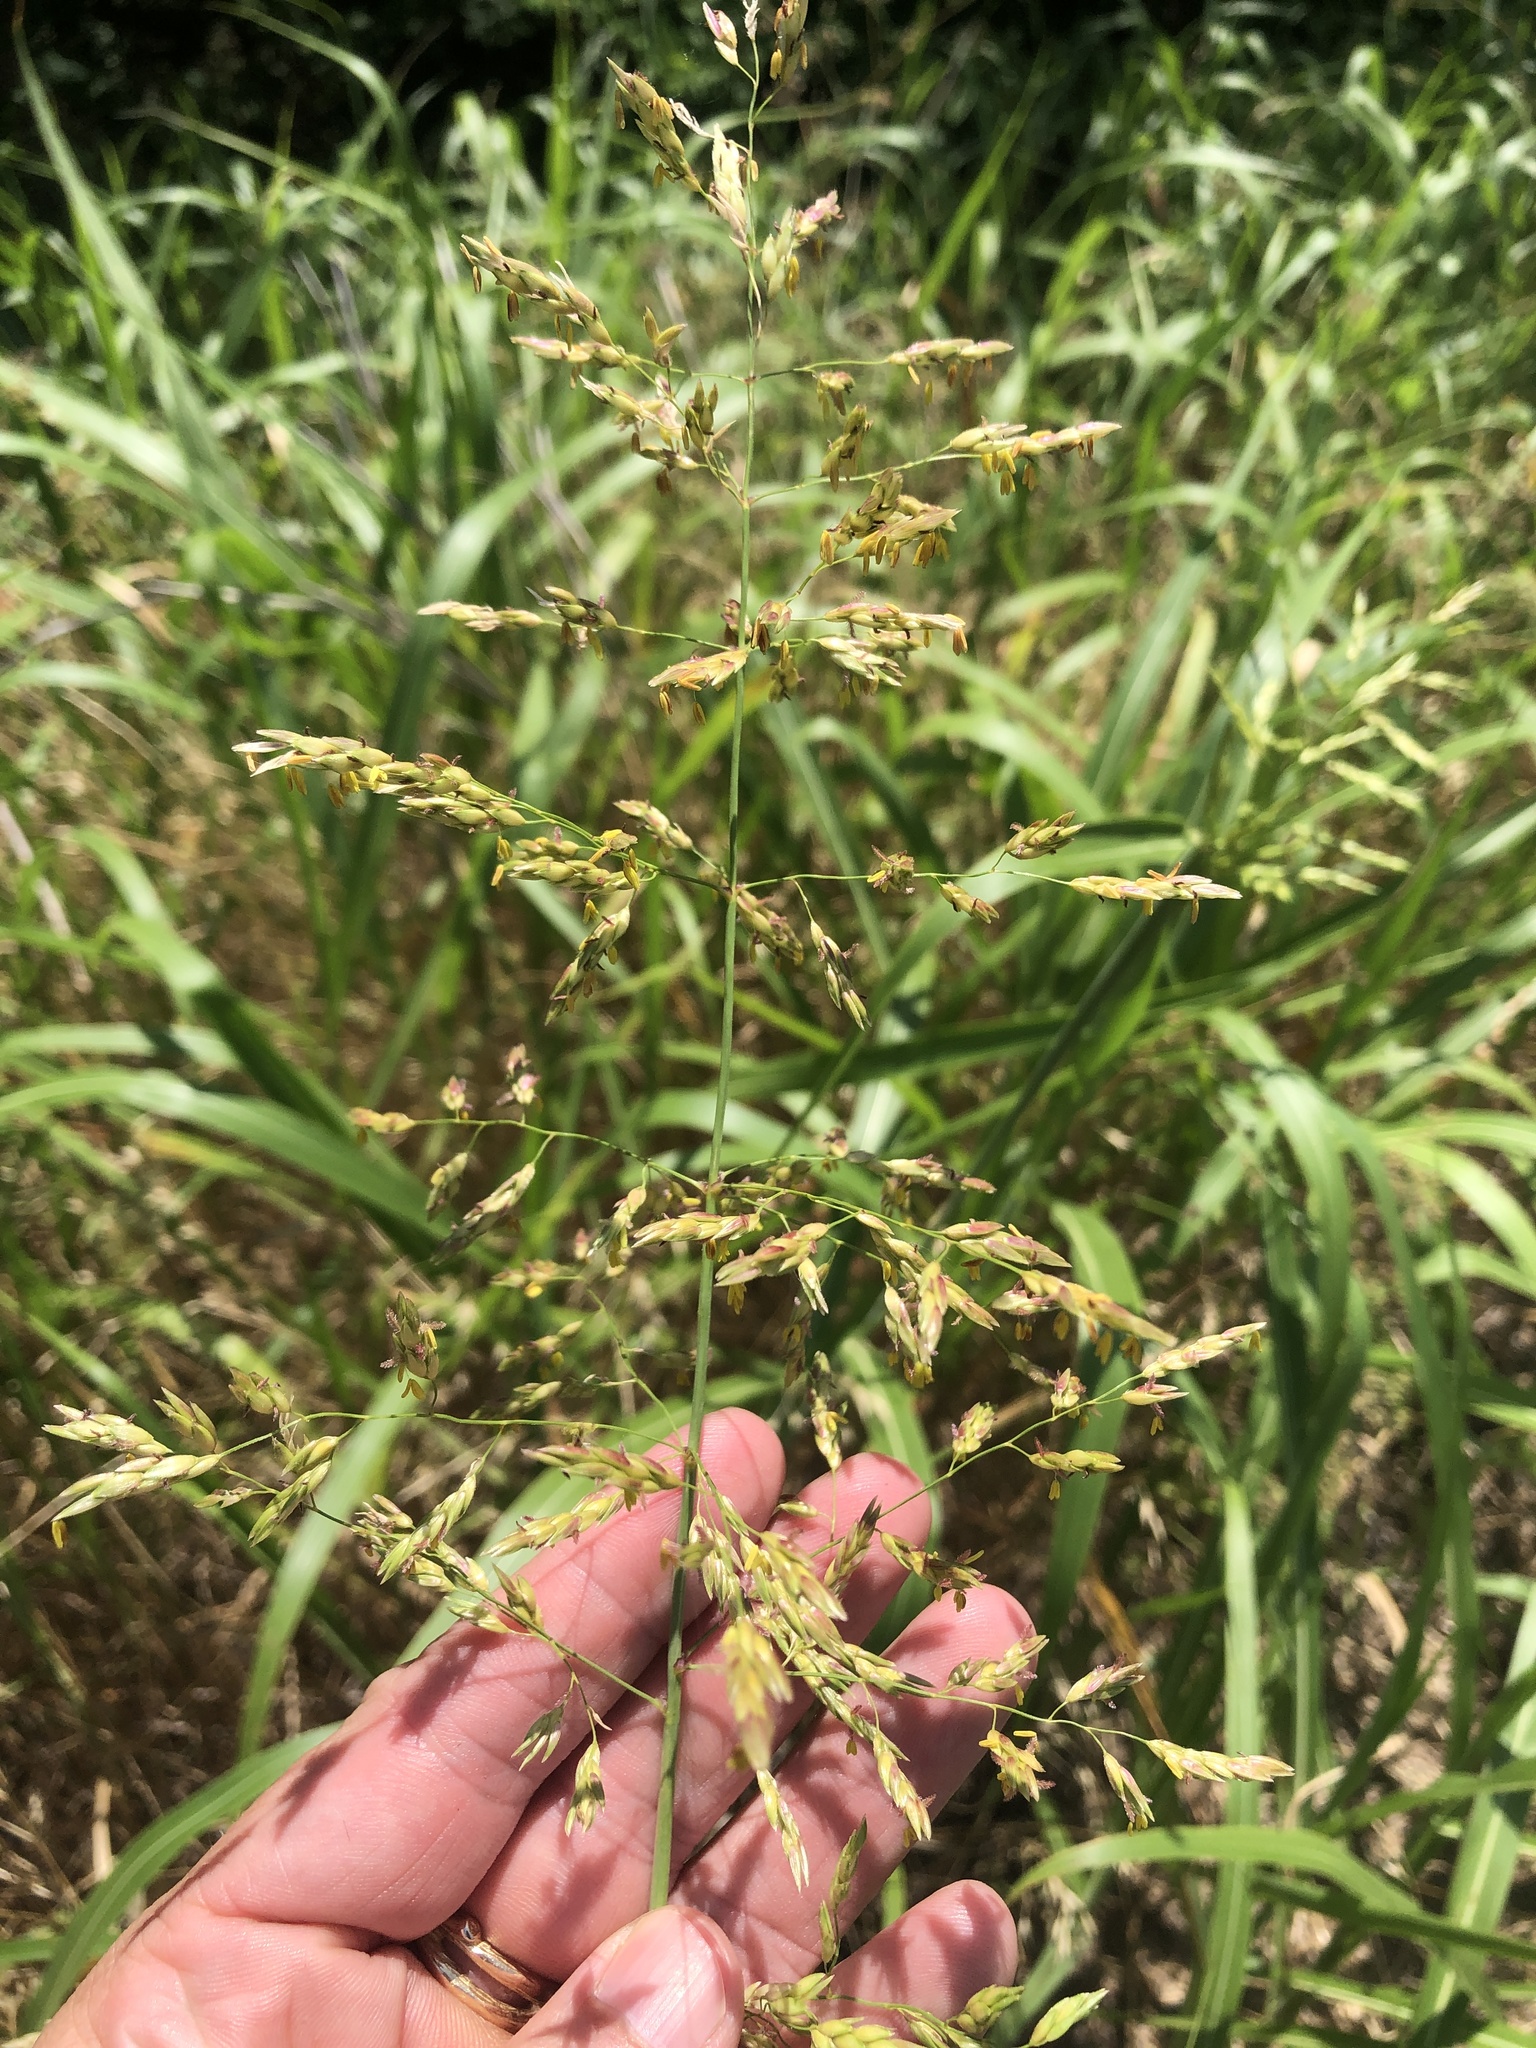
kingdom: Plantae
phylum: Tracheophyta
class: Liliopsida
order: Poales
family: Poaceae
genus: Sorghum
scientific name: Sorghum halepense
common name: Johnson-grass
